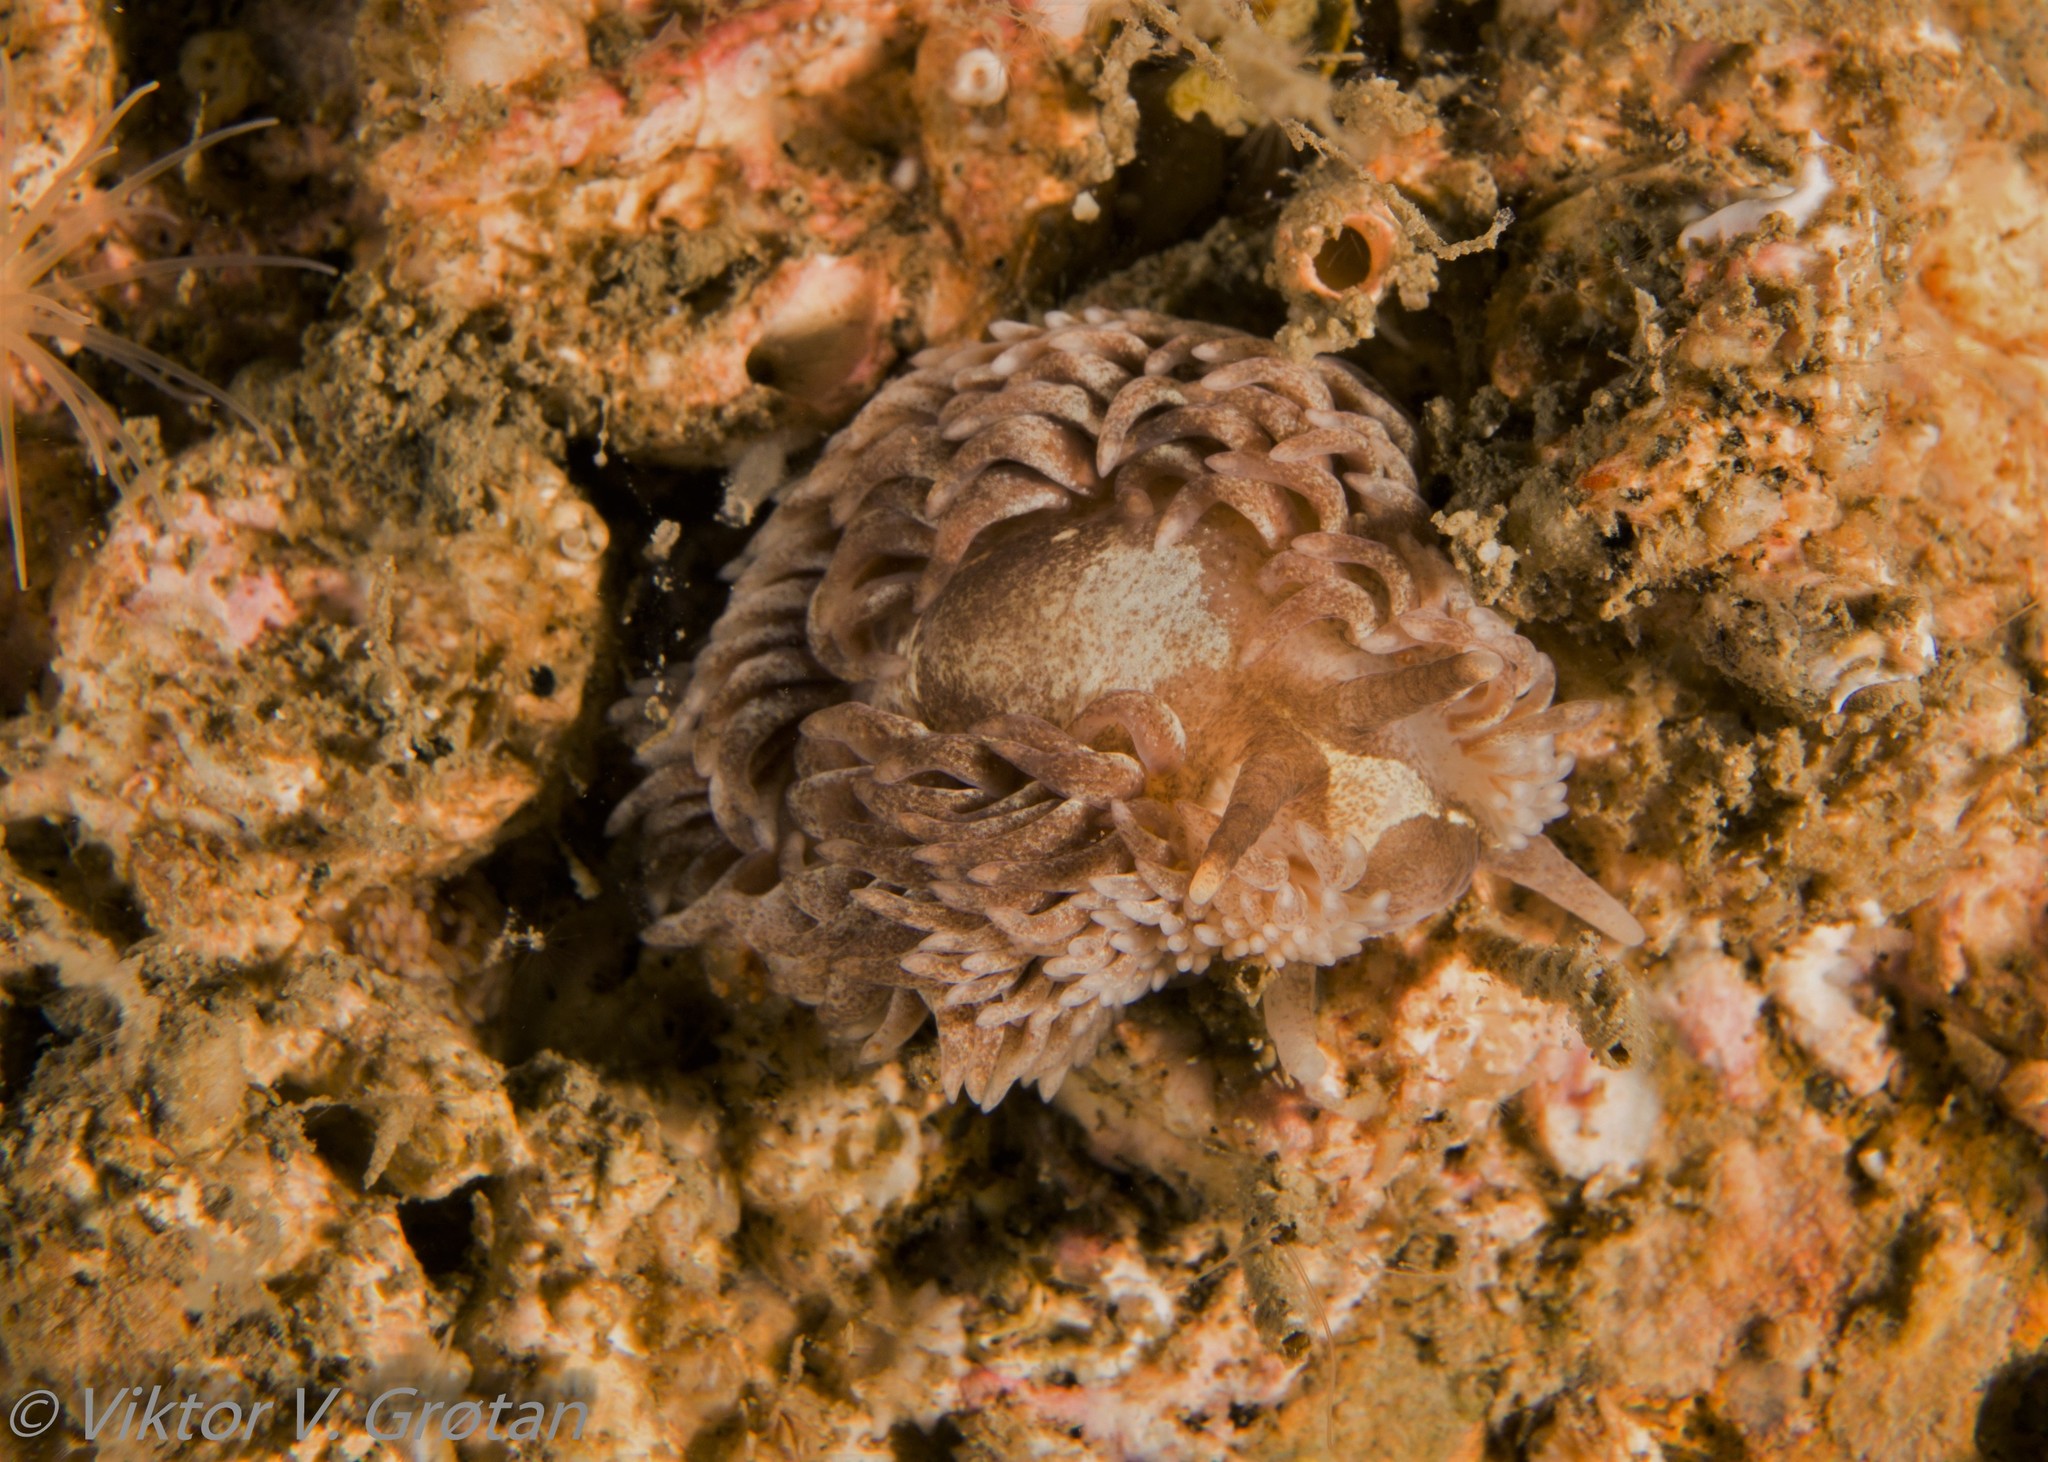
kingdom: Animalia
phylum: Mollusca
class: Gastropoda
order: Nudibranchia
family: Aeolidiidae
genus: Aeolidia
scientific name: Aeolidia filomenae
